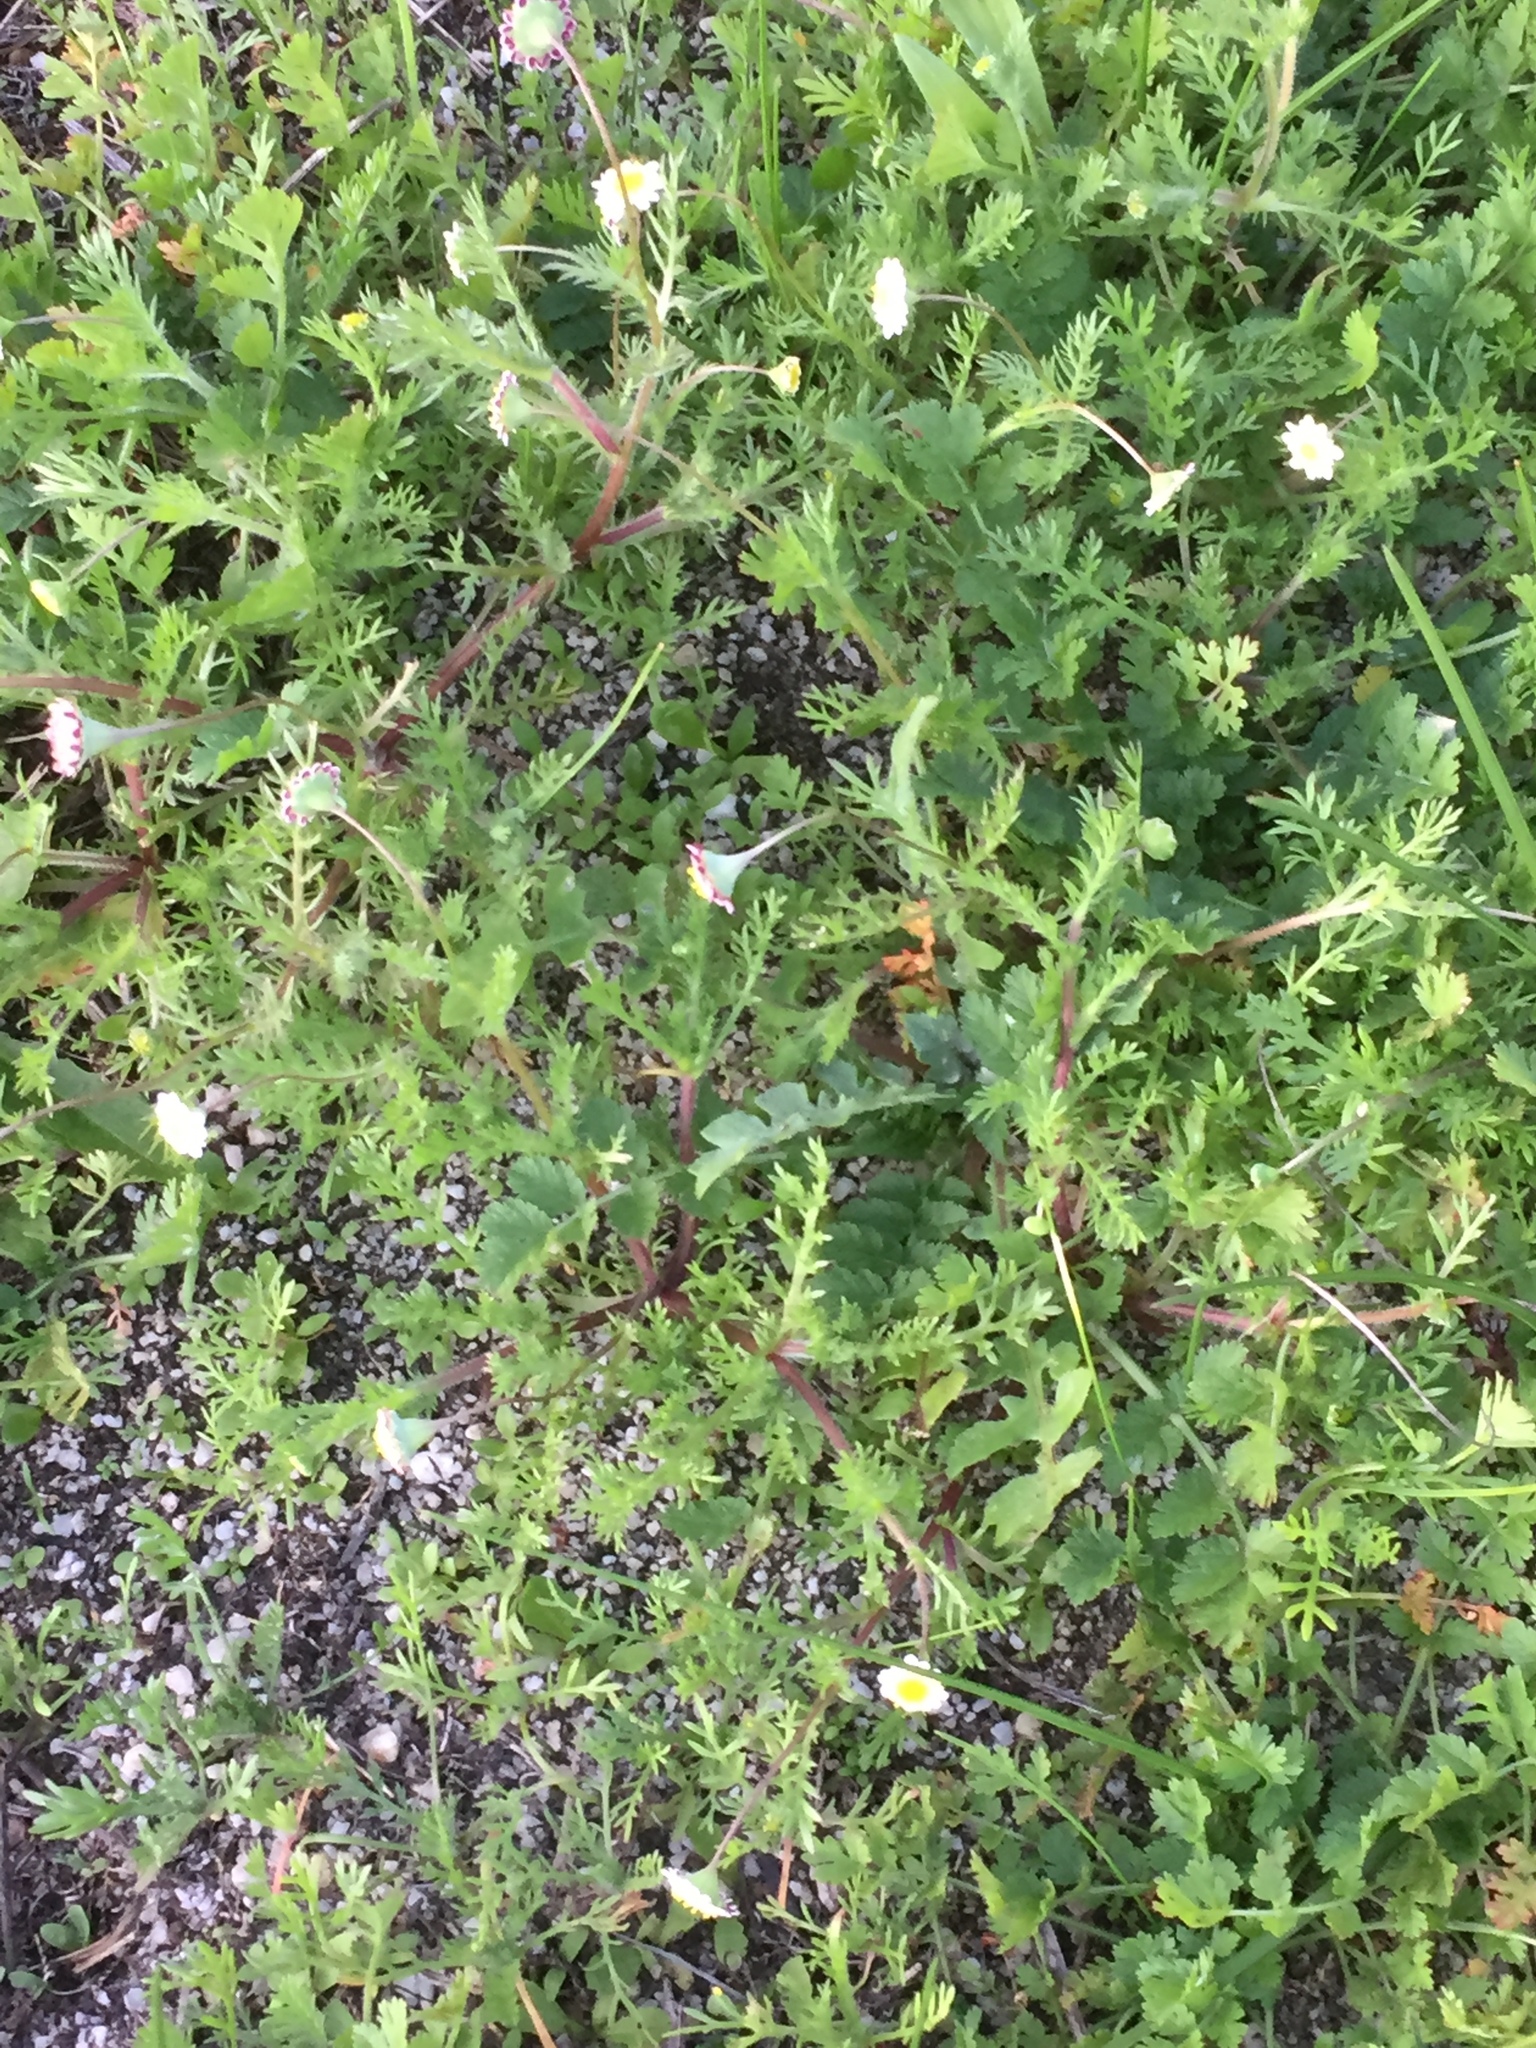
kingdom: Plantae
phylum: Tracheophyta
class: Magnoliopsida
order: Asterales
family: Asteraceae
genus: Cotula
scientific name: Cotula turbinata
